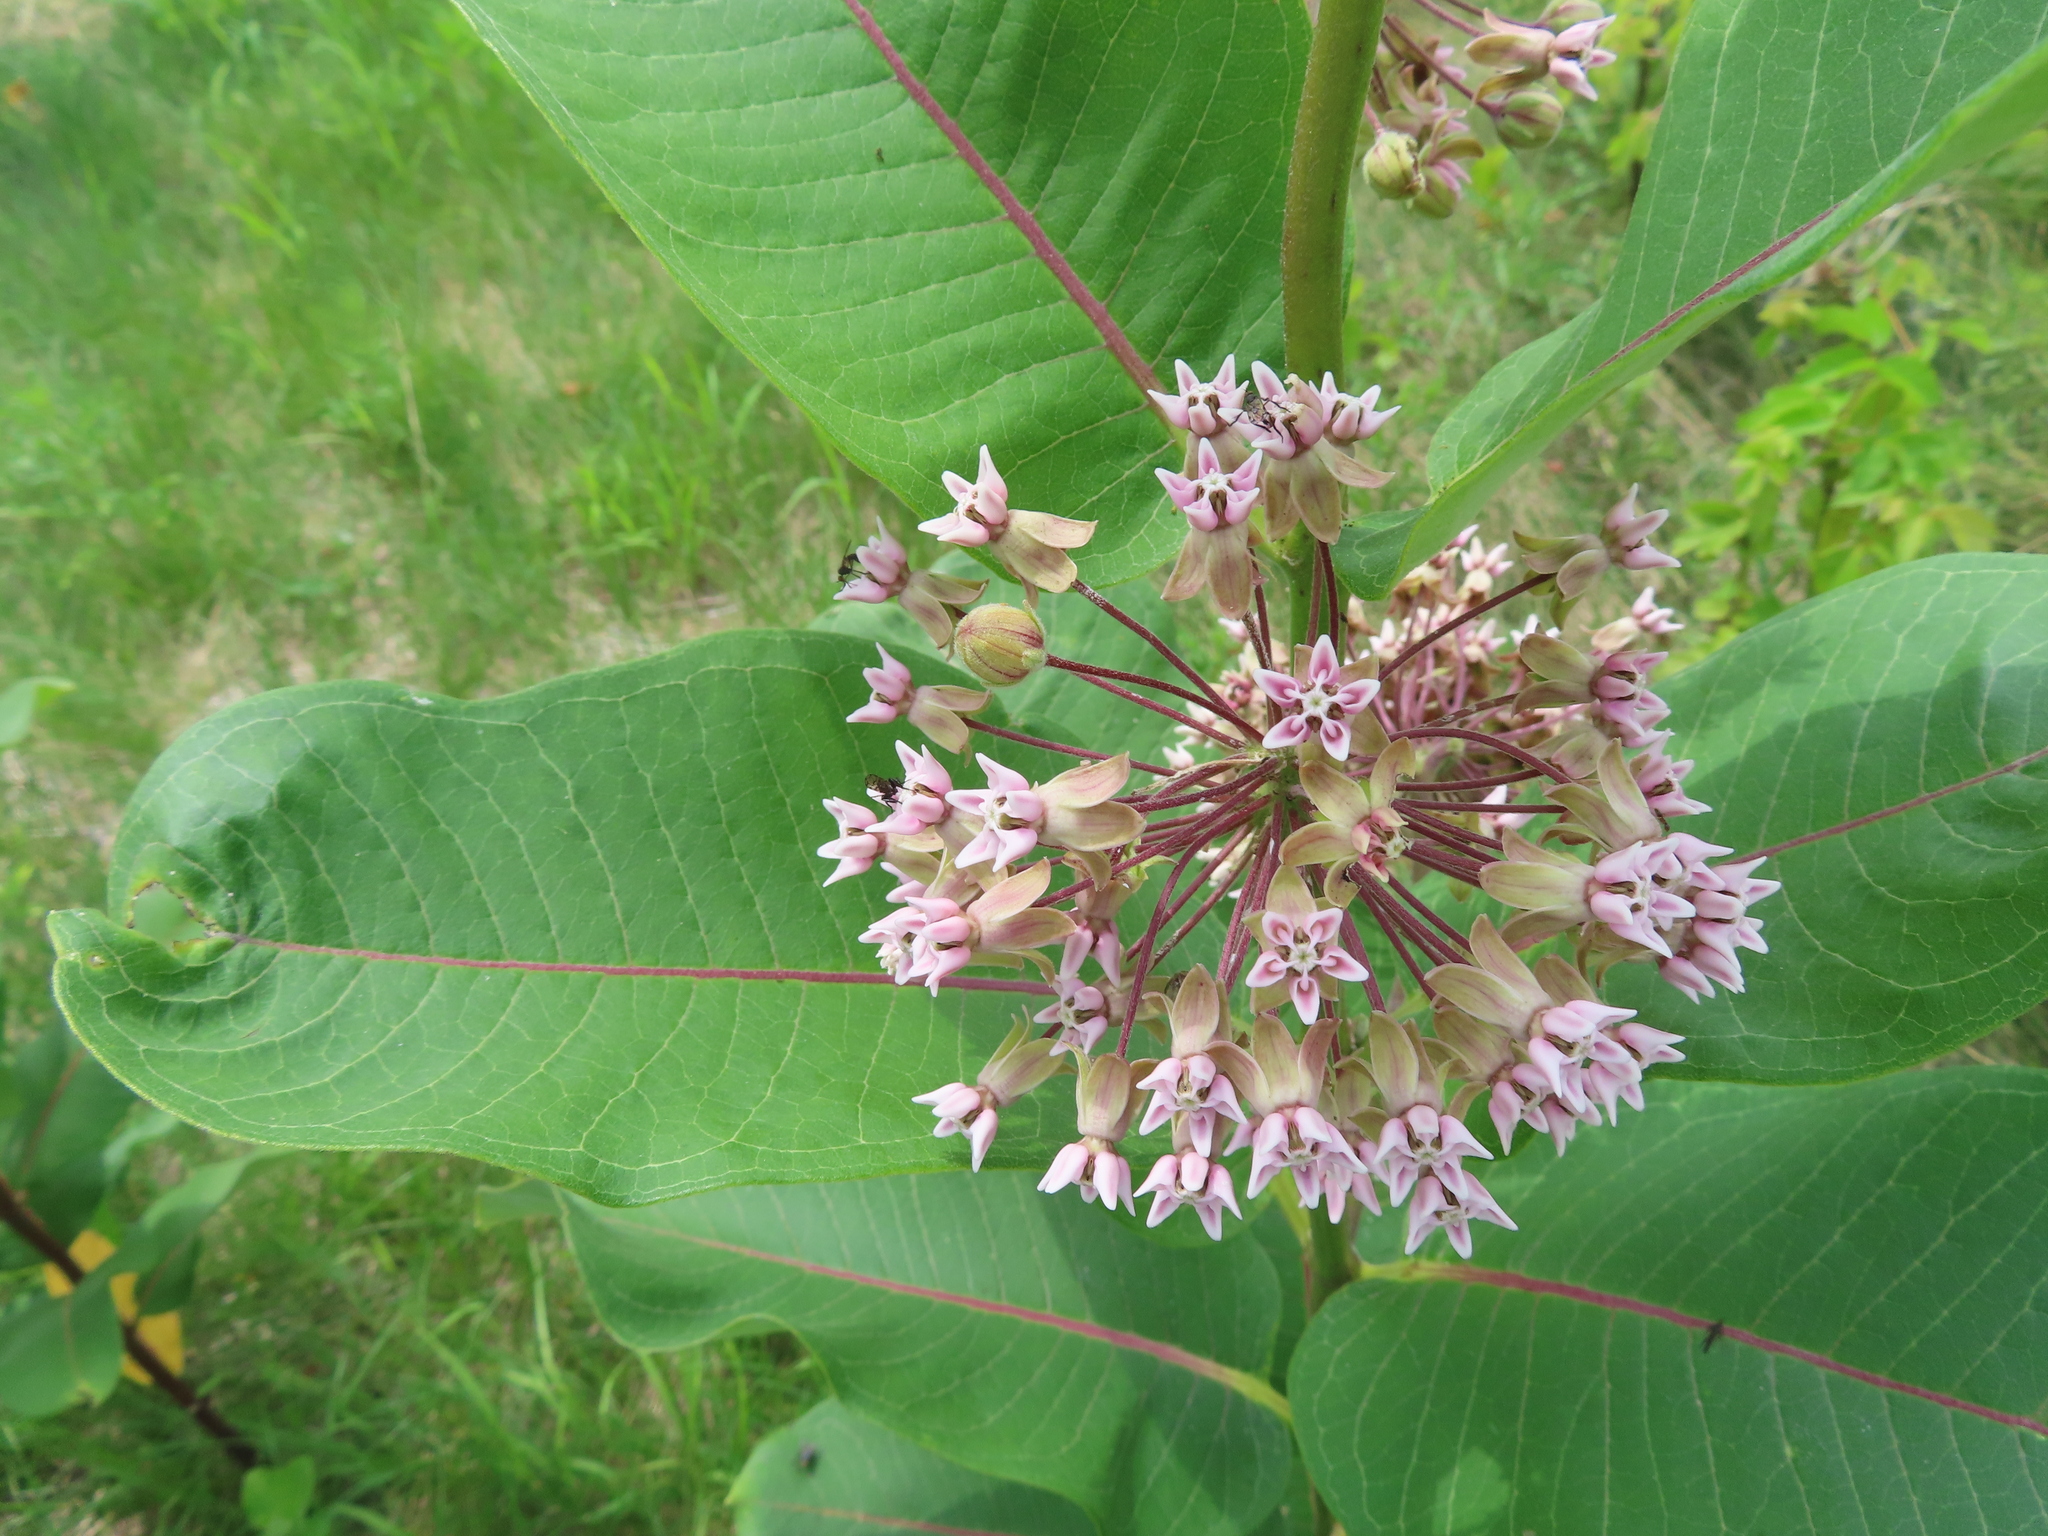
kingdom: Plantae
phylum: Tracheophyta
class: Magnoliopsida
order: Gentianales
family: Apocynaceae
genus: Asclepias
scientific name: Asclepias syriaca
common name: Common milkweed
